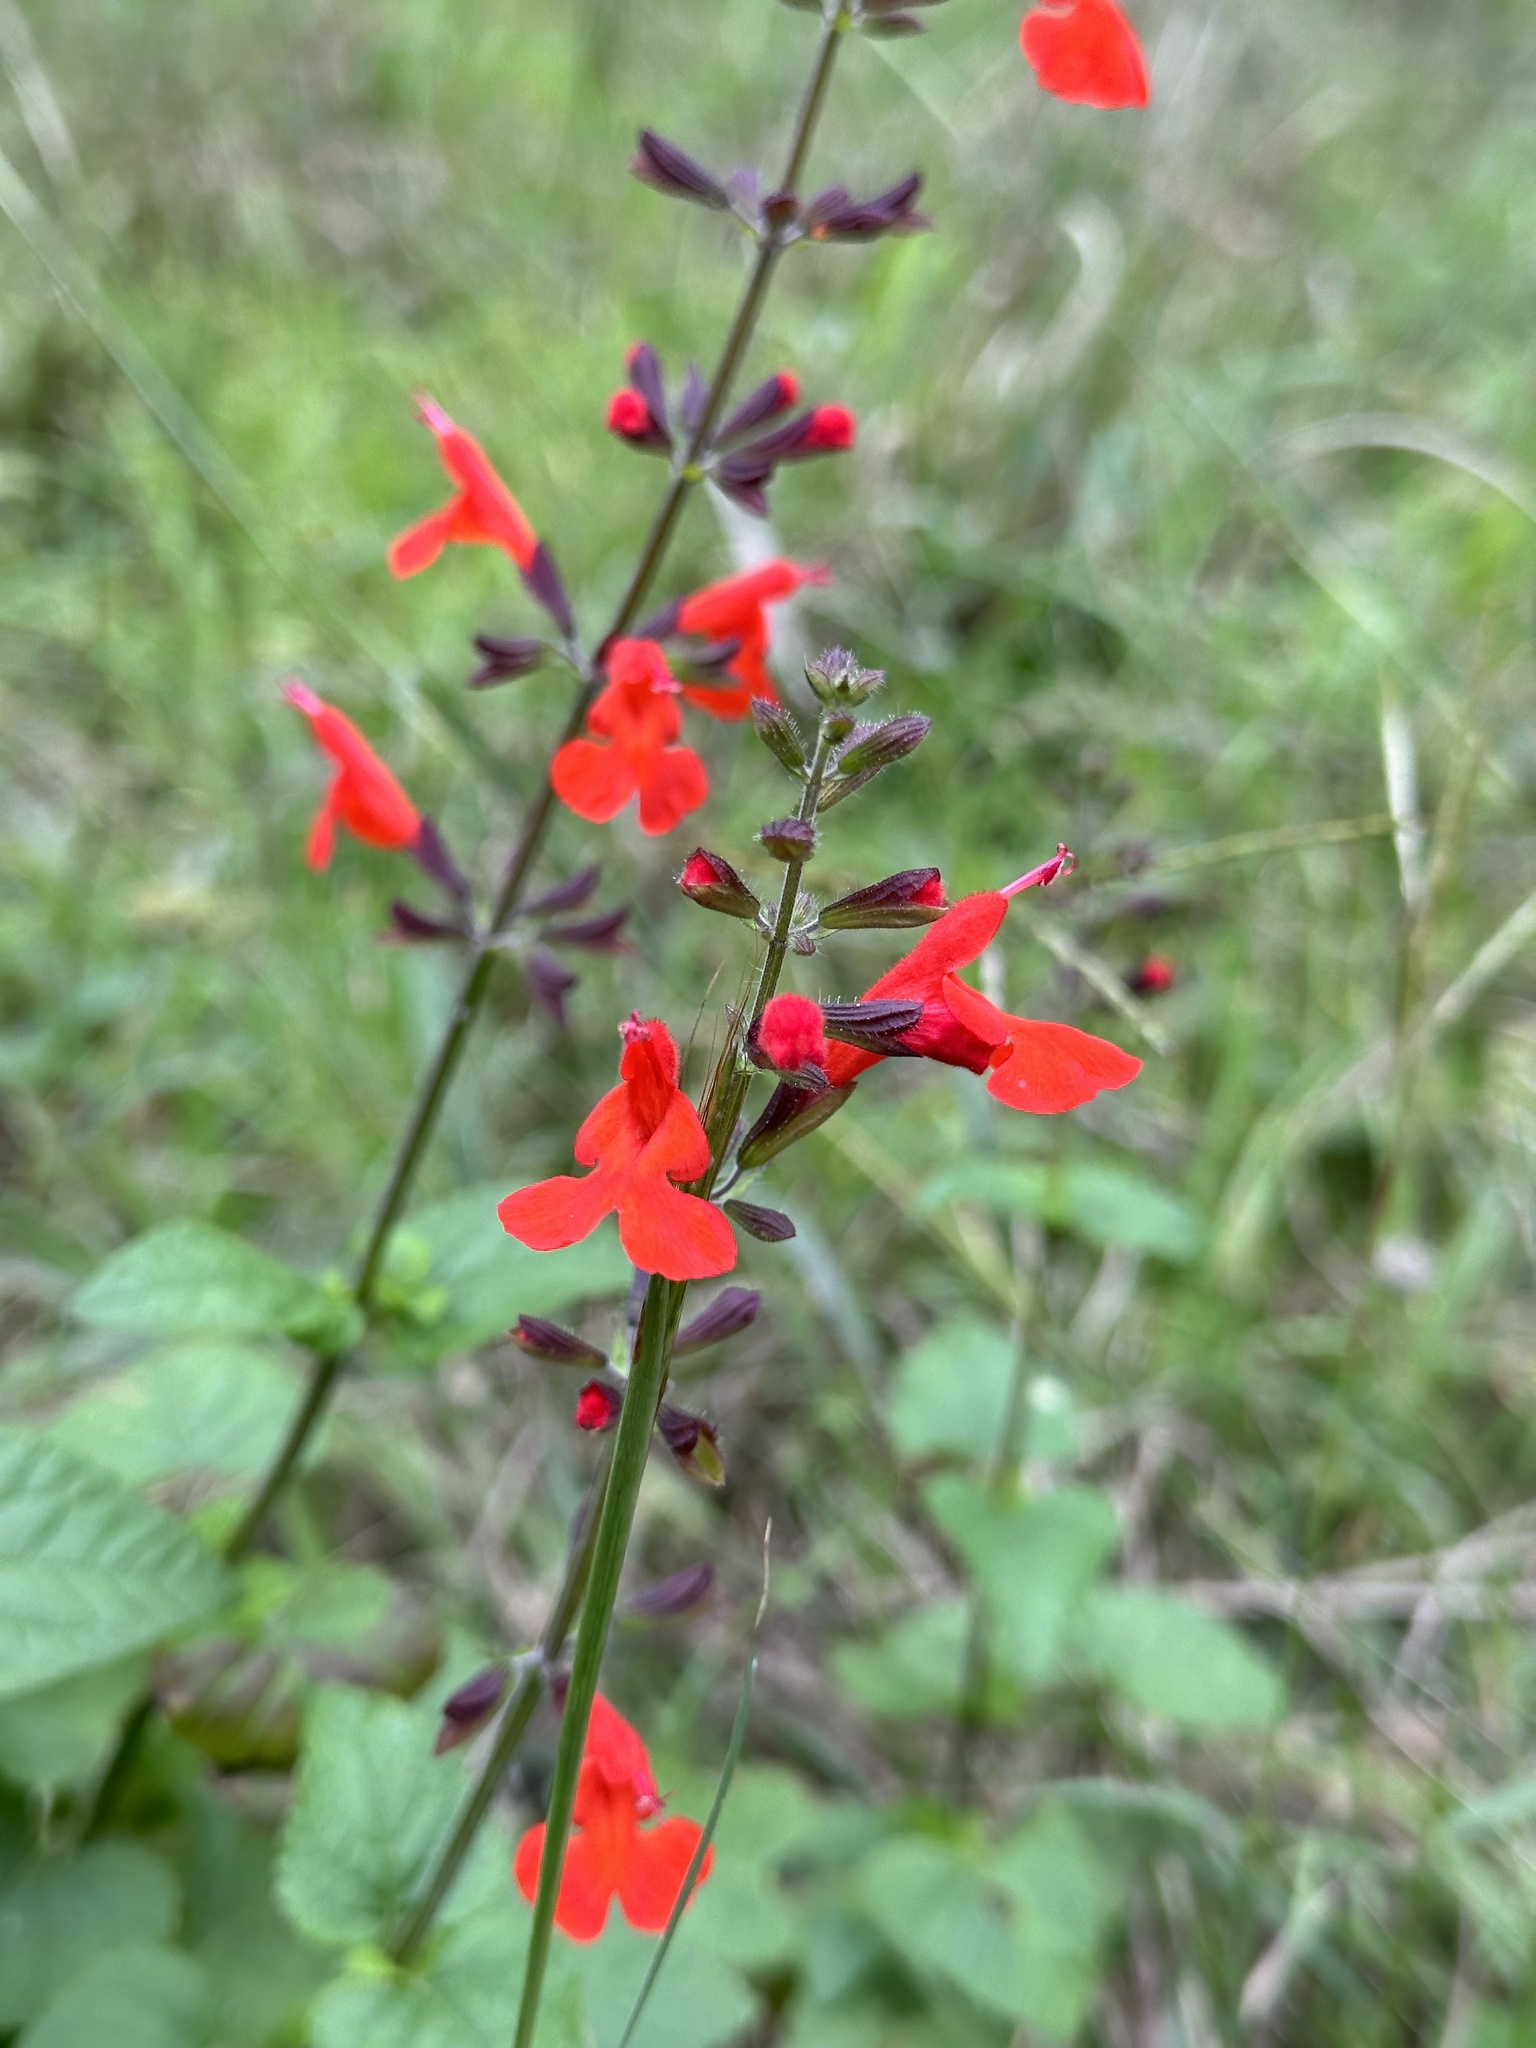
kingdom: Plantae
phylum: Tracheophyta
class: Magnoliopsida
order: Lamiales
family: Lamiaceae
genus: Salvia
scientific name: Salvia coccinea
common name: Blood sage
